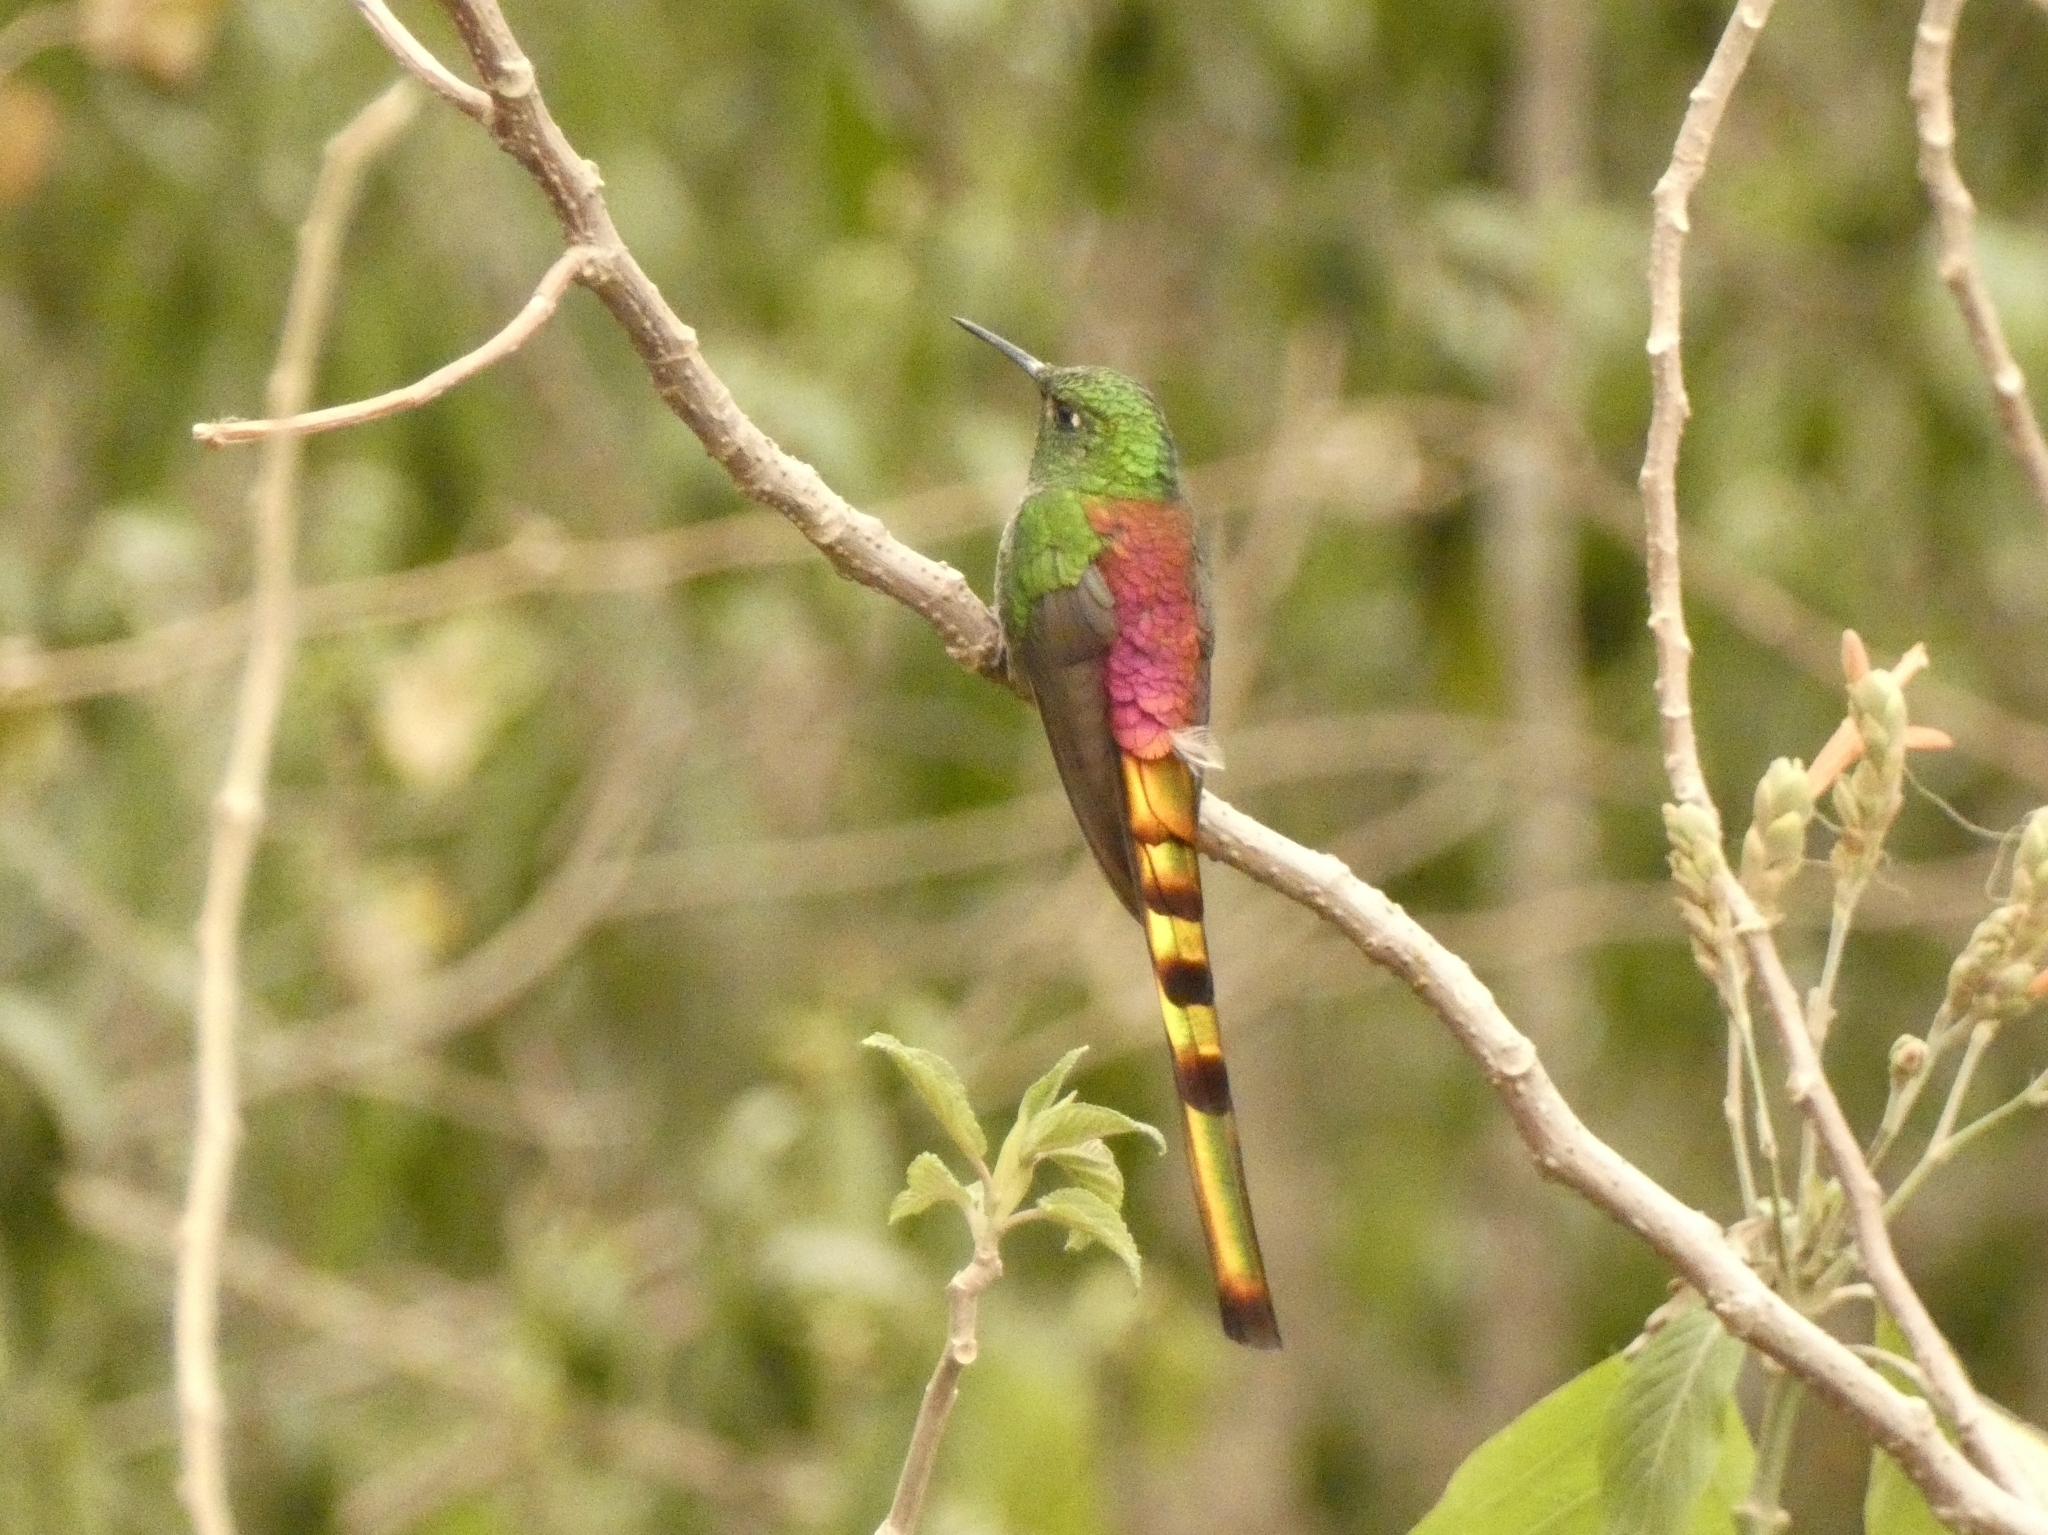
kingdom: Animalia
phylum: Chordata
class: Aves
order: Apodiformes
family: Trochilidae
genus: Sappho
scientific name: Sappho sparganurus
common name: Red-tailed comet
